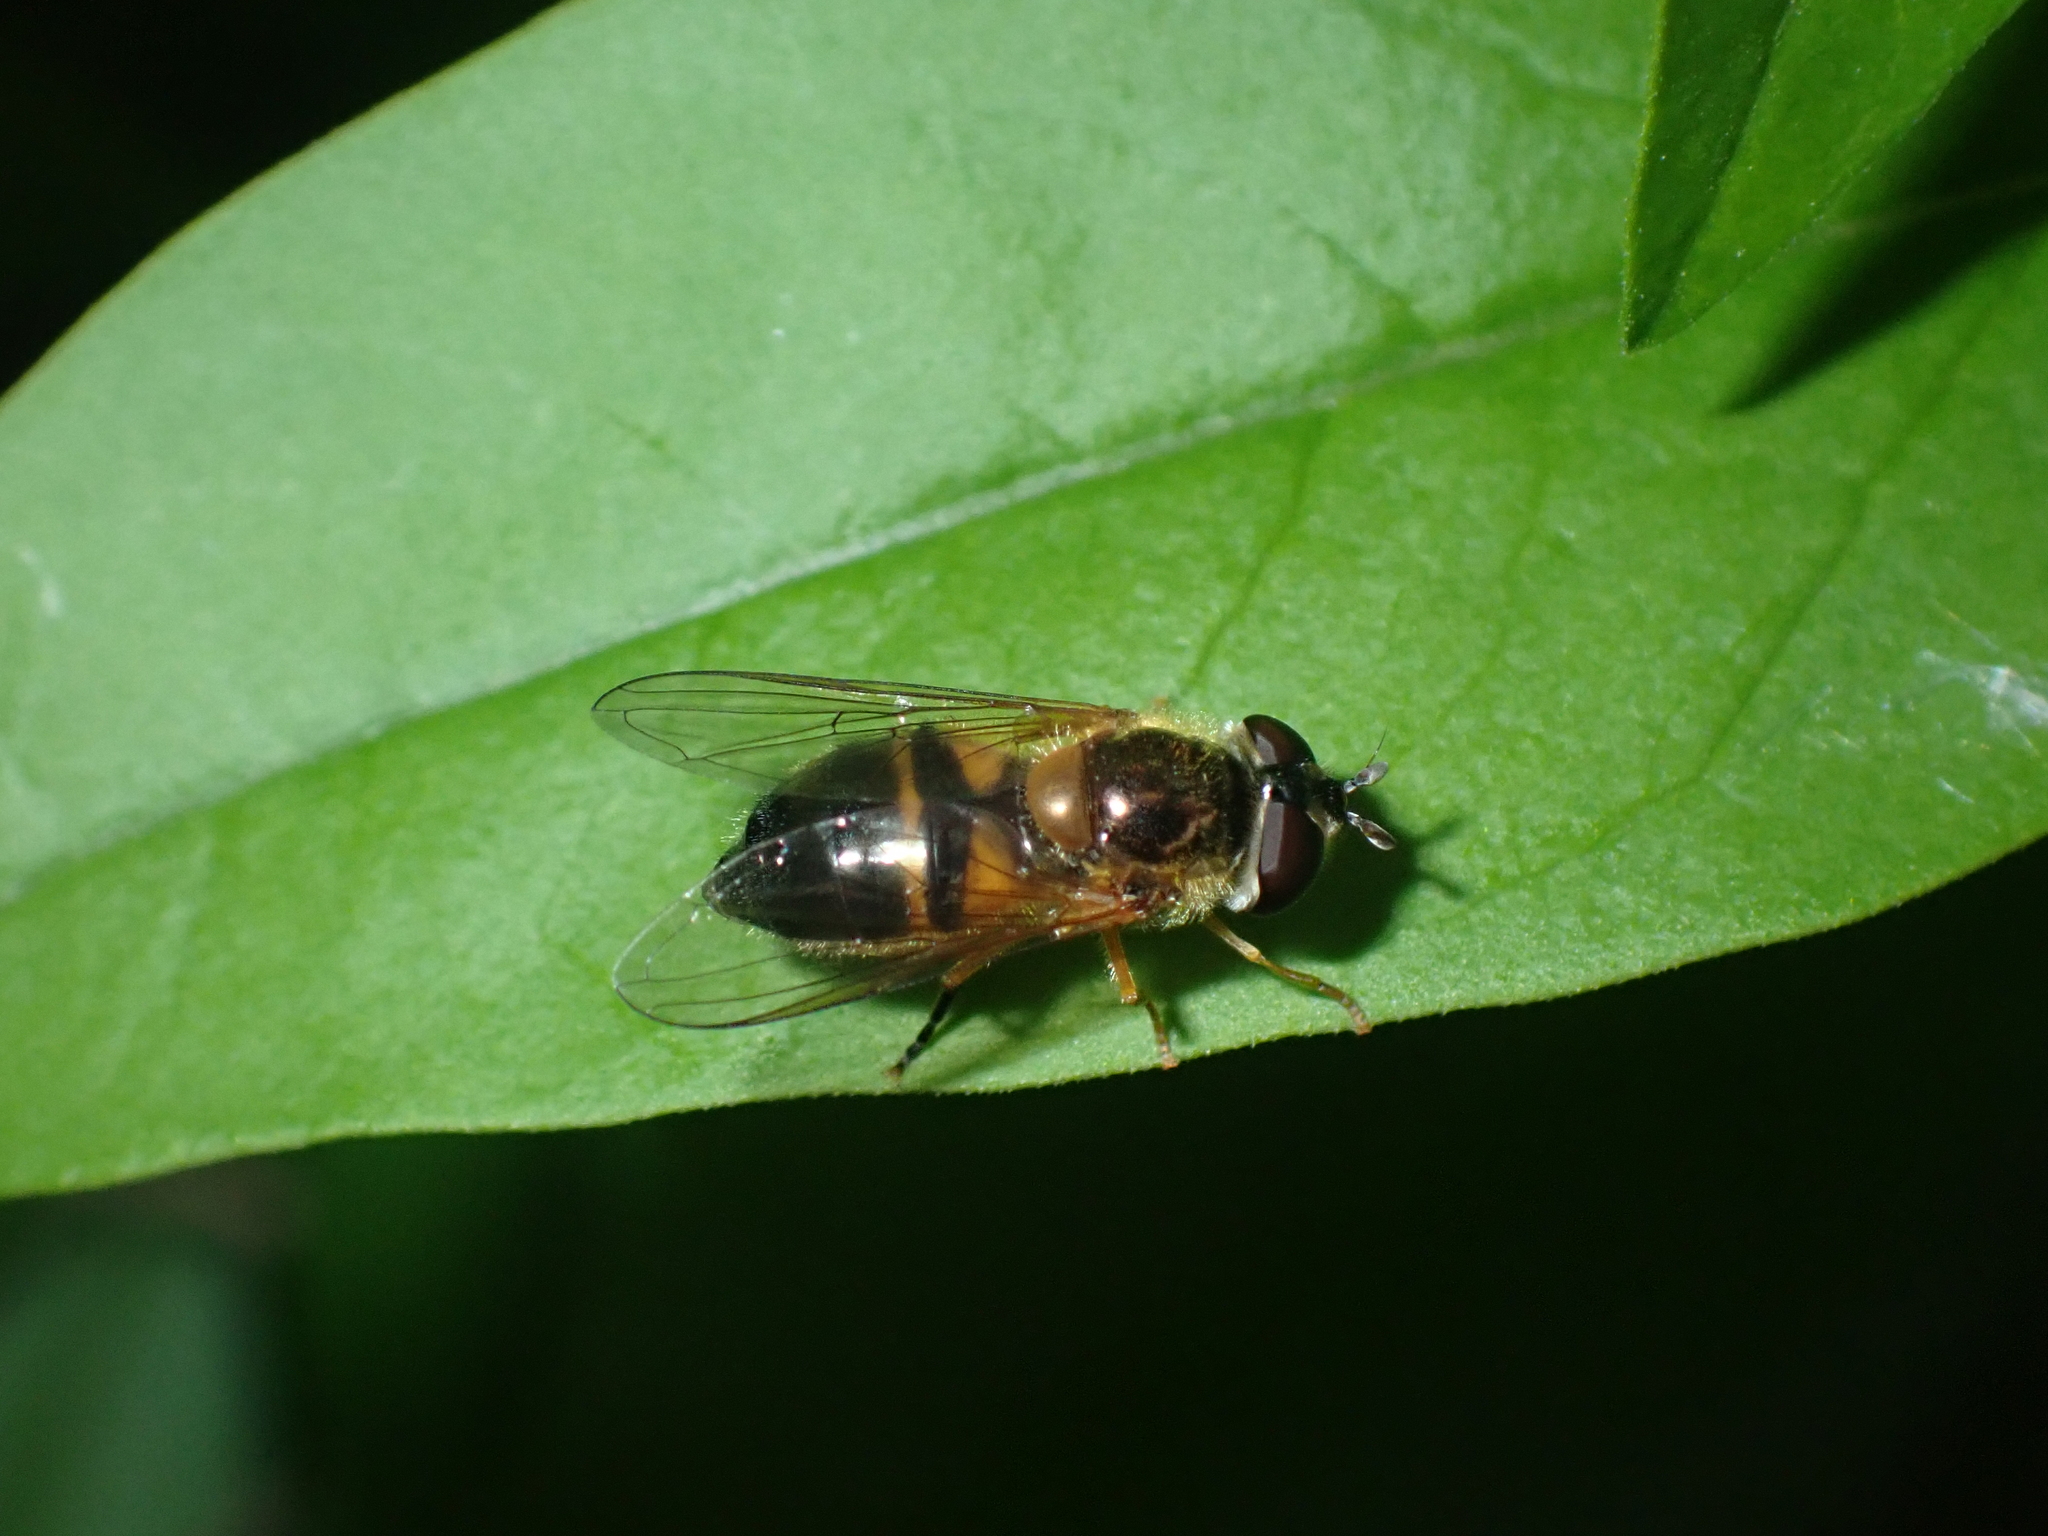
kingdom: Animalia
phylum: Arthropoda
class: Insecta
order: Diptera
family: Syrphidae
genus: Epistrophe
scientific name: Epistrophe eligans
